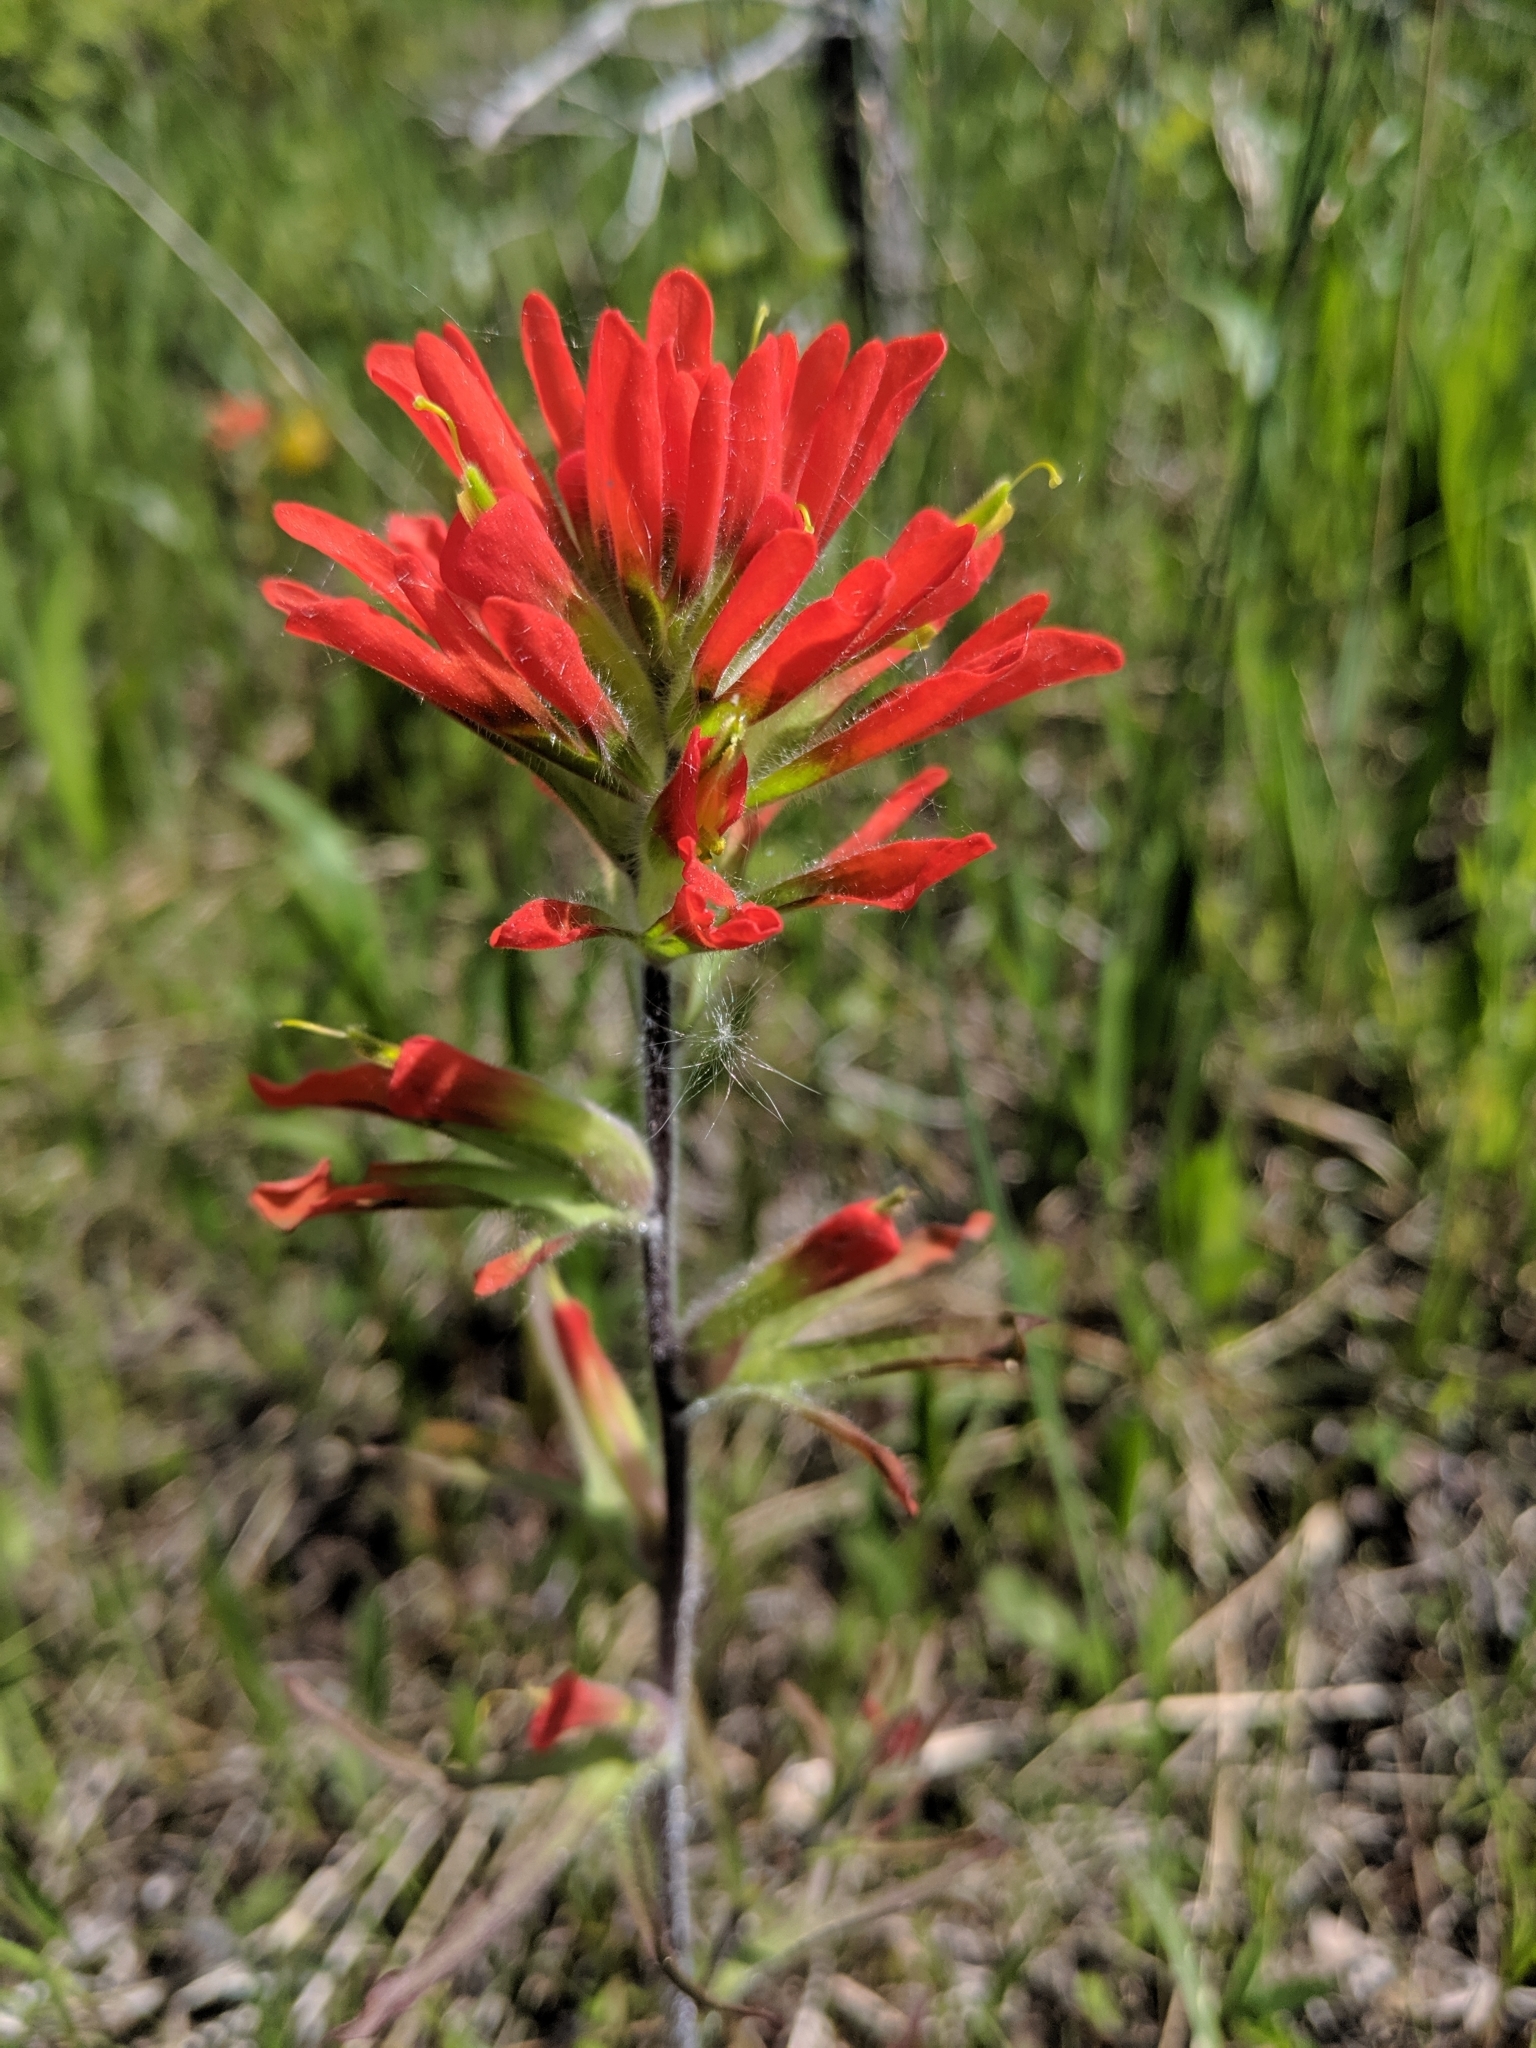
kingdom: Plantae
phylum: Tracheophyta
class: Magnoliopsida
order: Lamiales
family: Orobanchaceae
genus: Castilleja
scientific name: Castilleja coccinea
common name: Scarlet paintbrush
